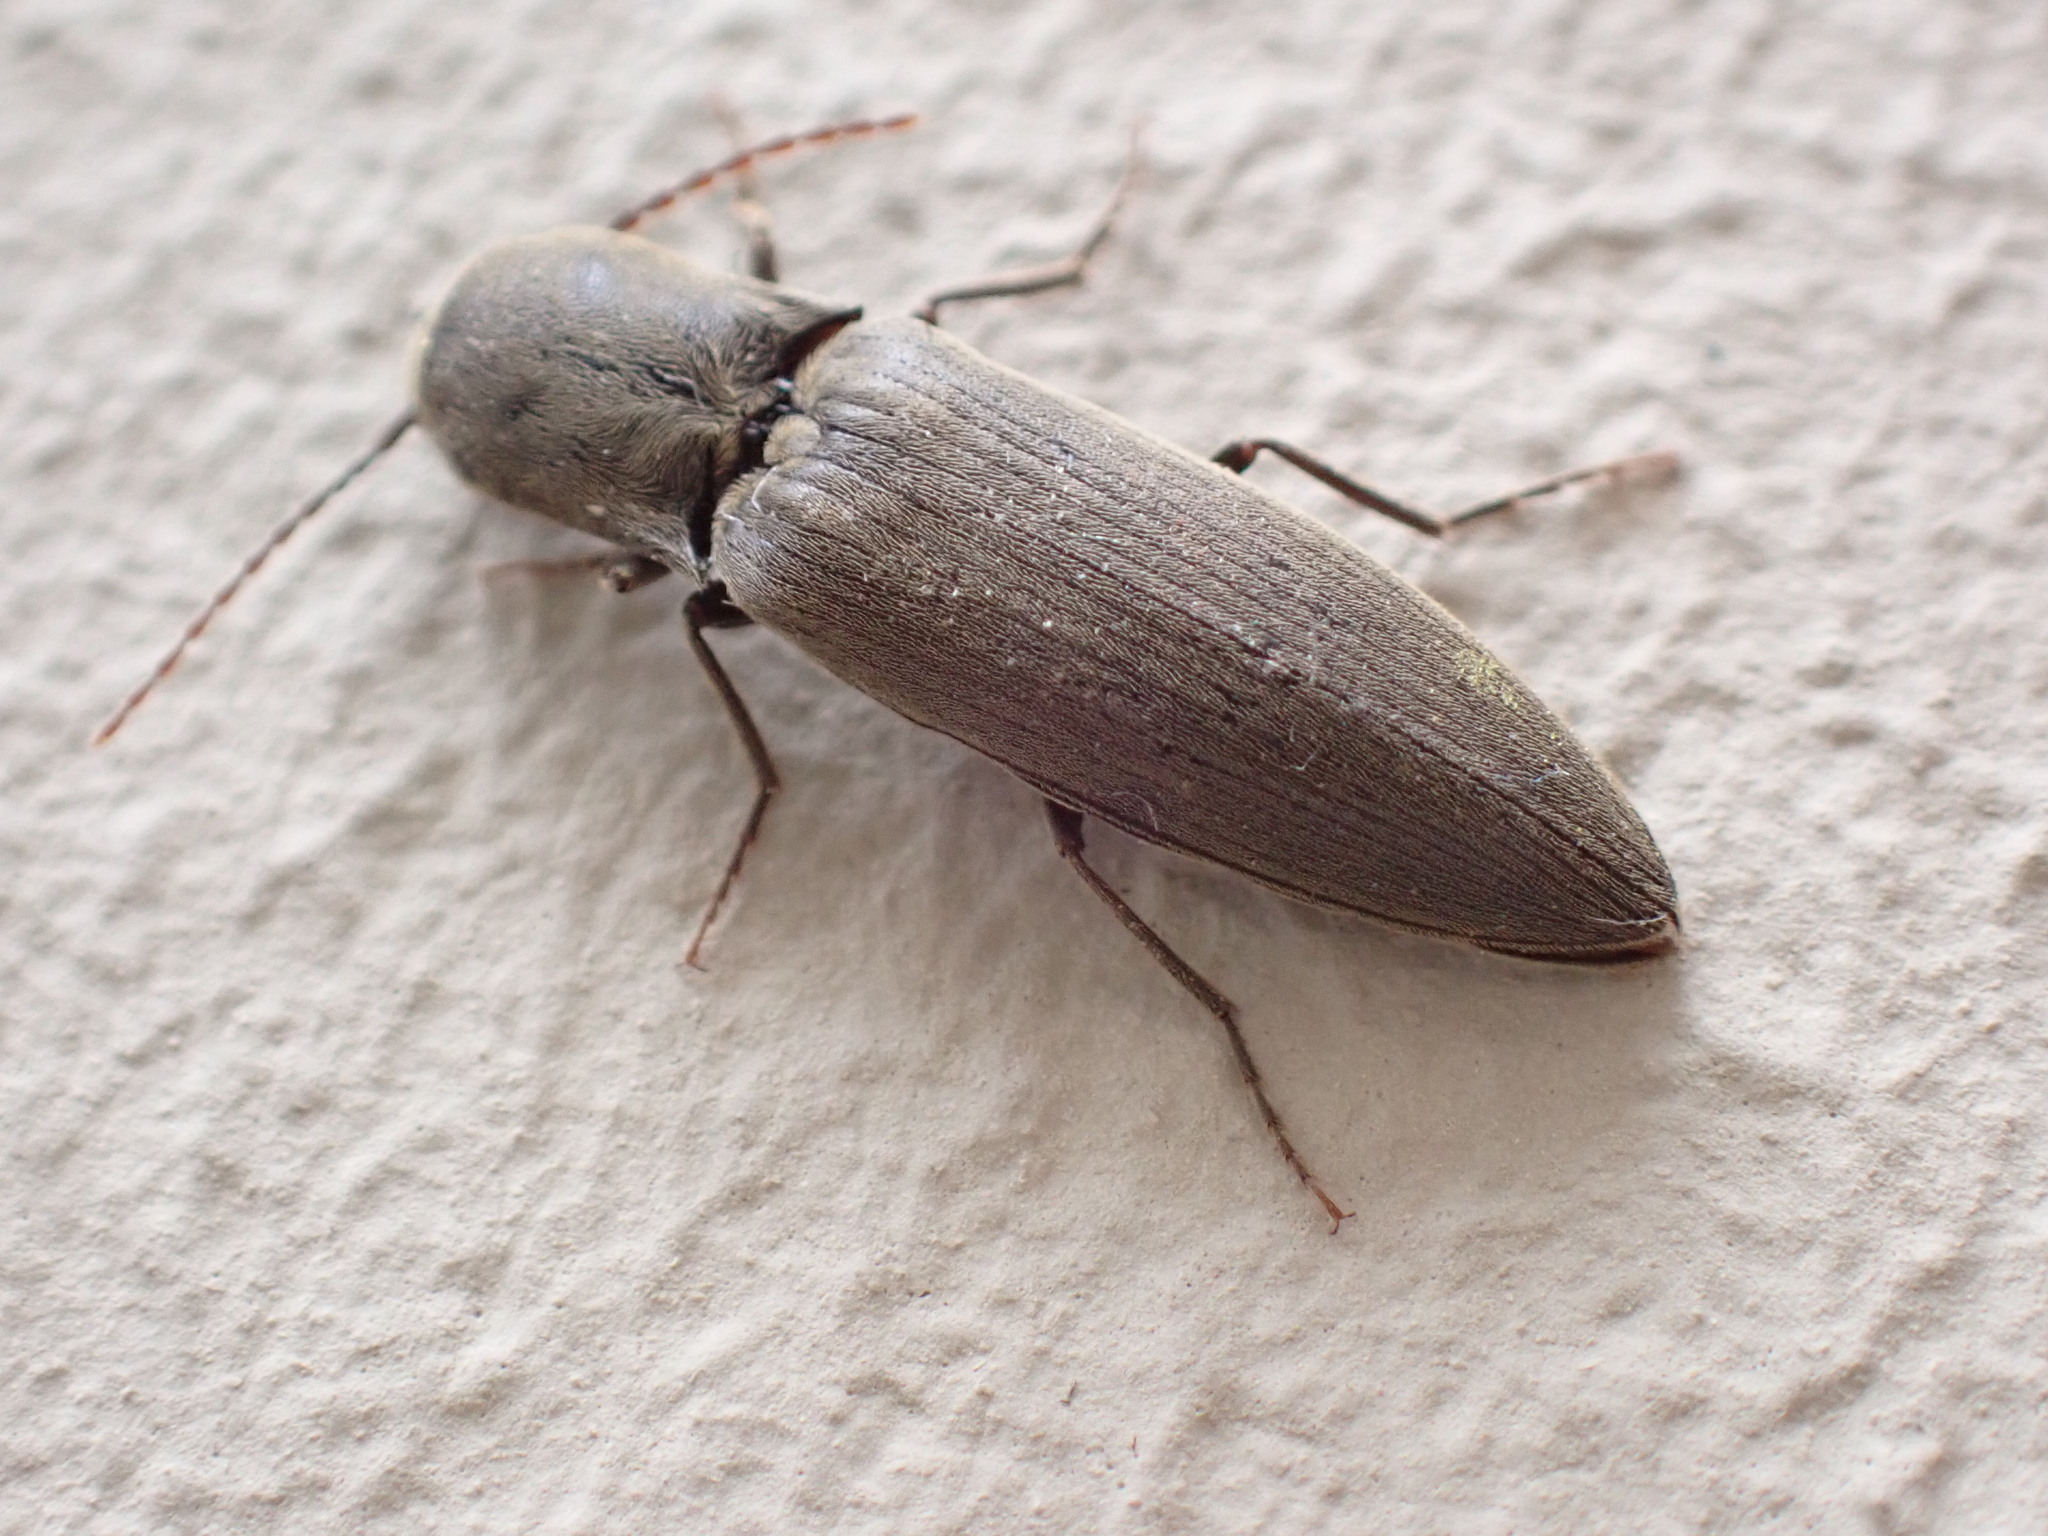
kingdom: Animalia
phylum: Arthropoda
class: Insecta
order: Coleoptera
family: Elateridae
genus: Agriotes
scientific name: Agriotes pilosellus
